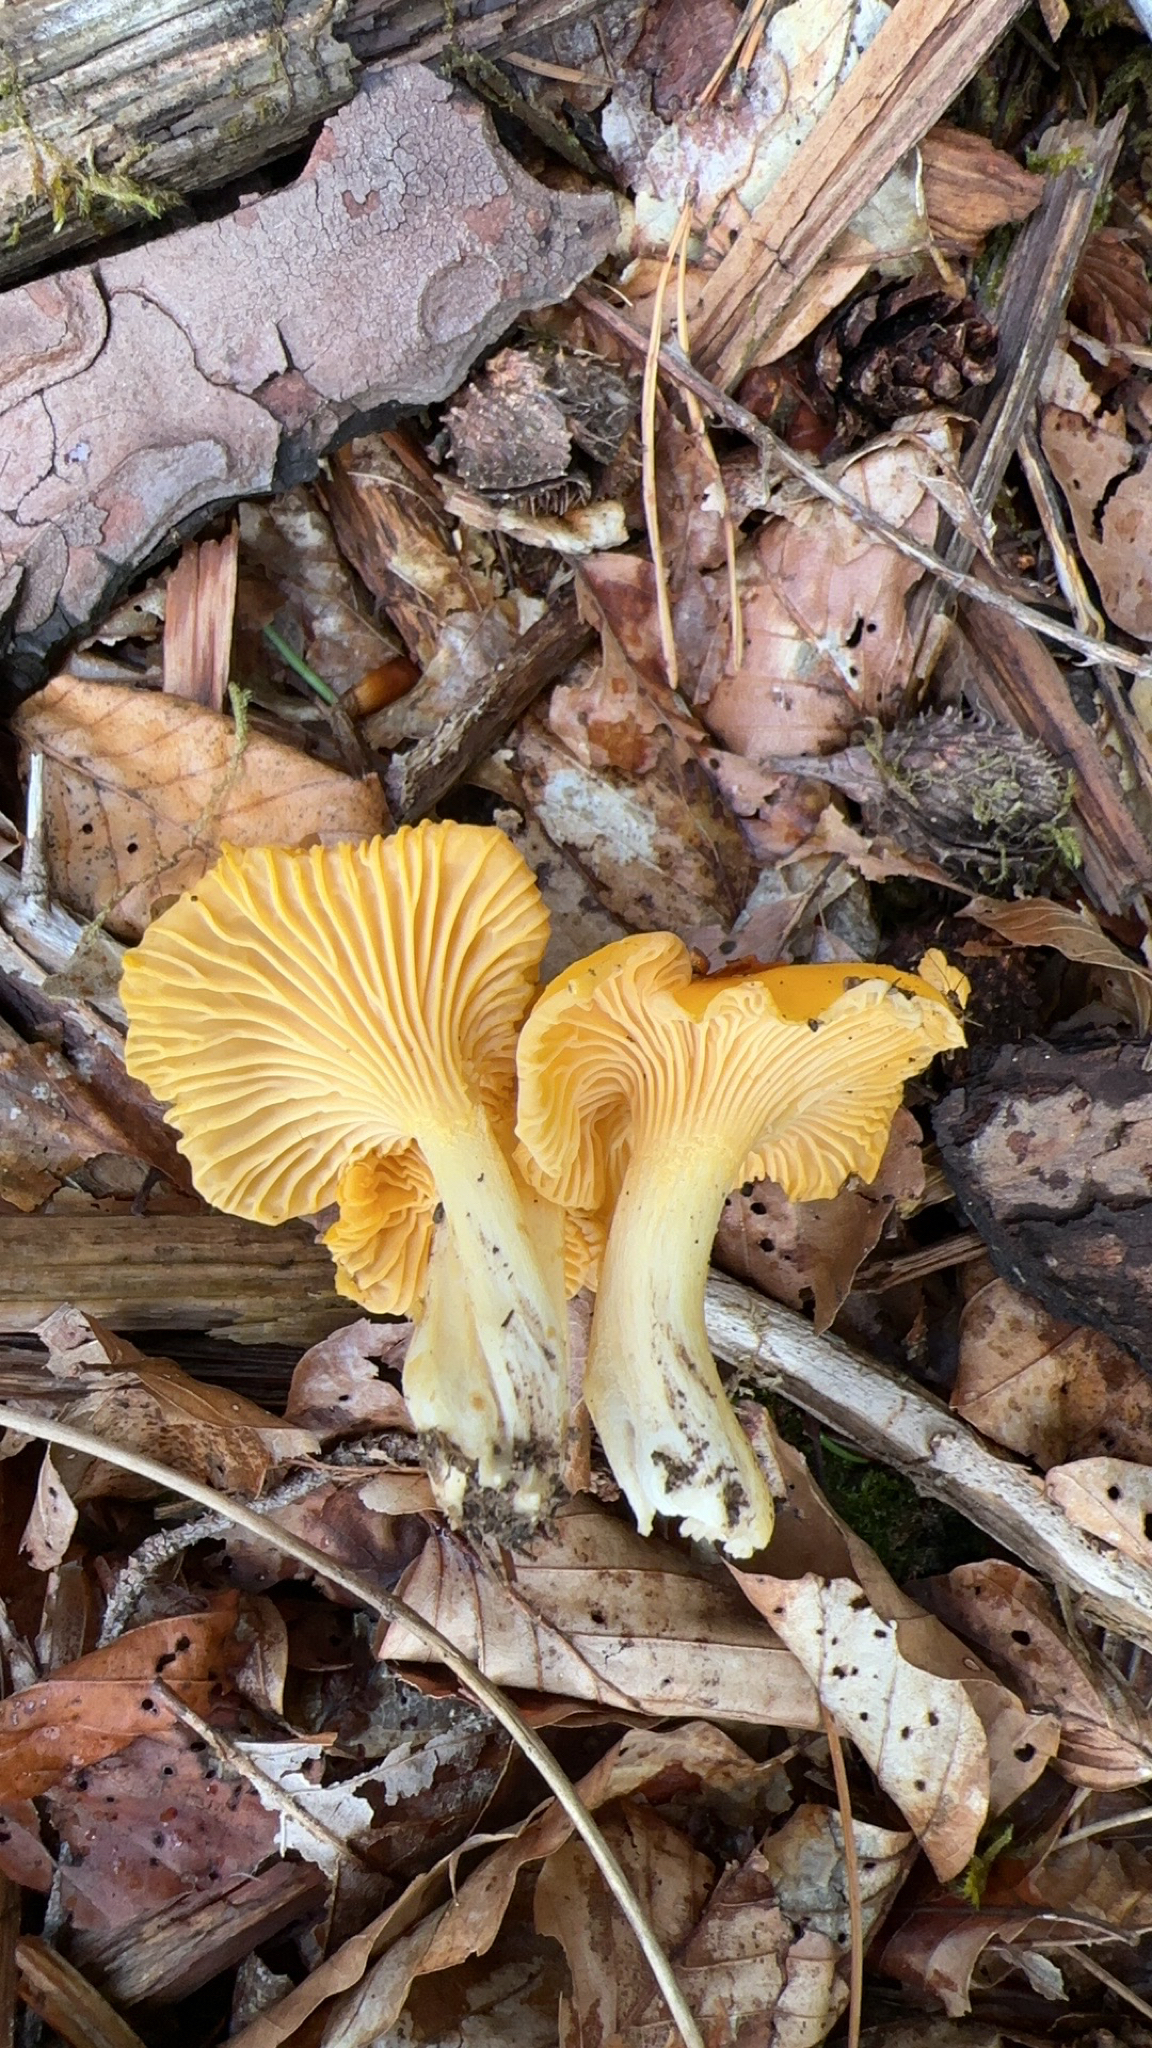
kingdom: Fungi
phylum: Basidiomycota
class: Agaricomycetes
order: Cantharellales
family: Hydnaceae
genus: Cantharellus
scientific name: Cantharellus cibarius
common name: Chanterelle
